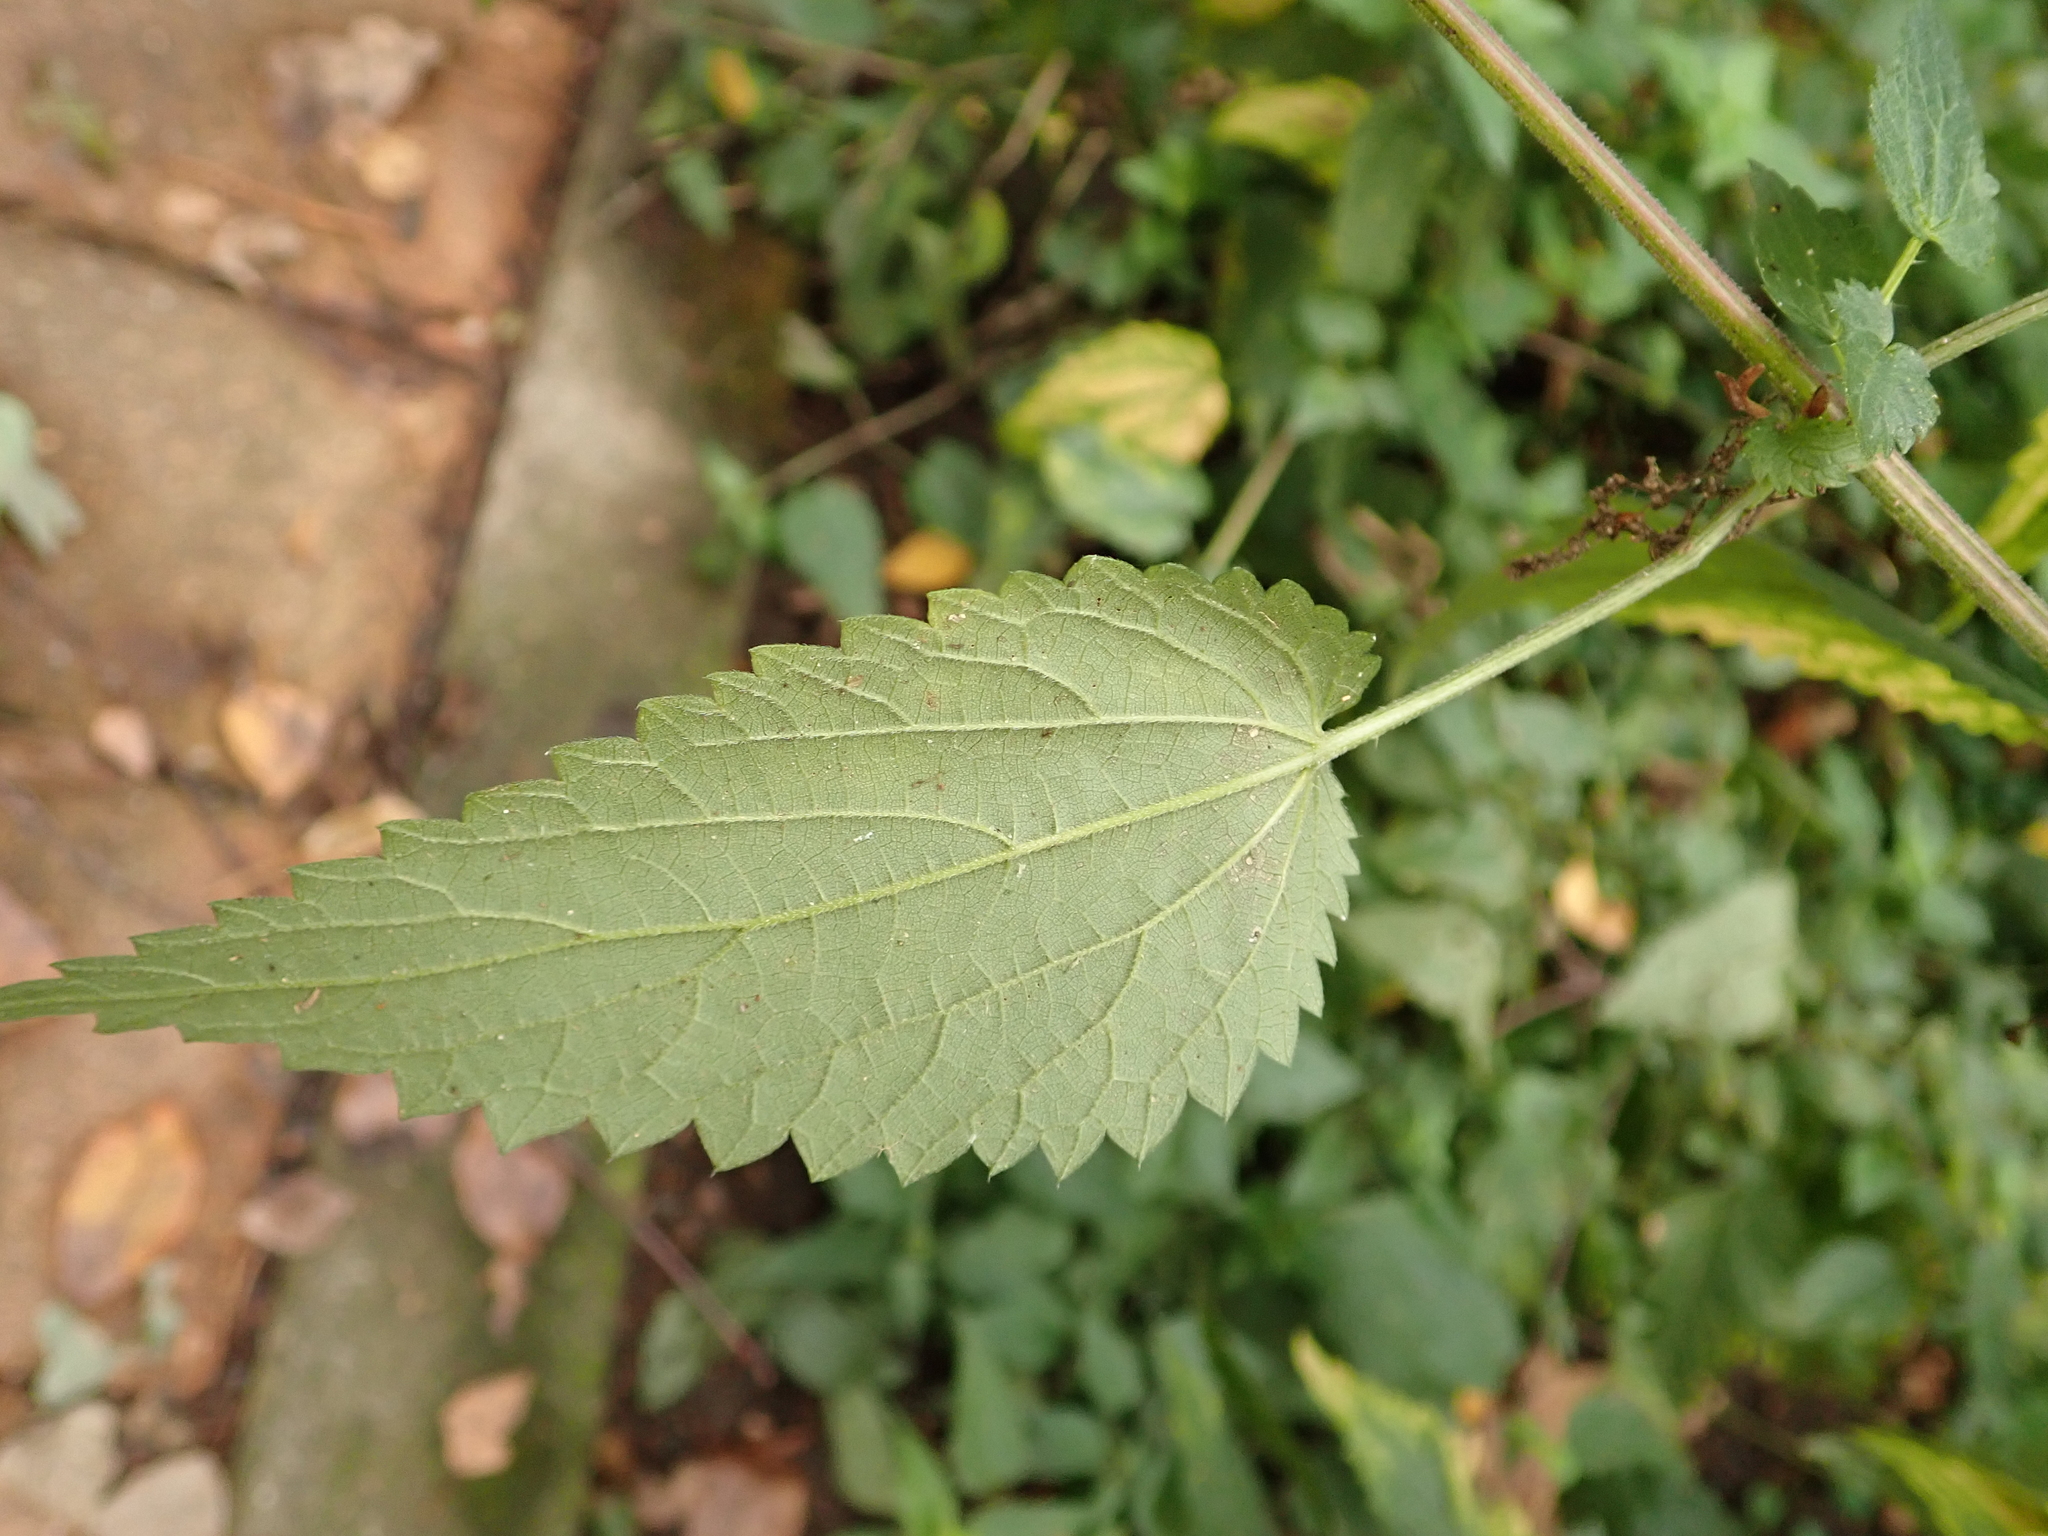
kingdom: Plantae
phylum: Tracheophyta
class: Magnoliopsida
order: Rosales
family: Urticaceae
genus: Urtica
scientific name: Urtica dioica
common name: Common nettle
